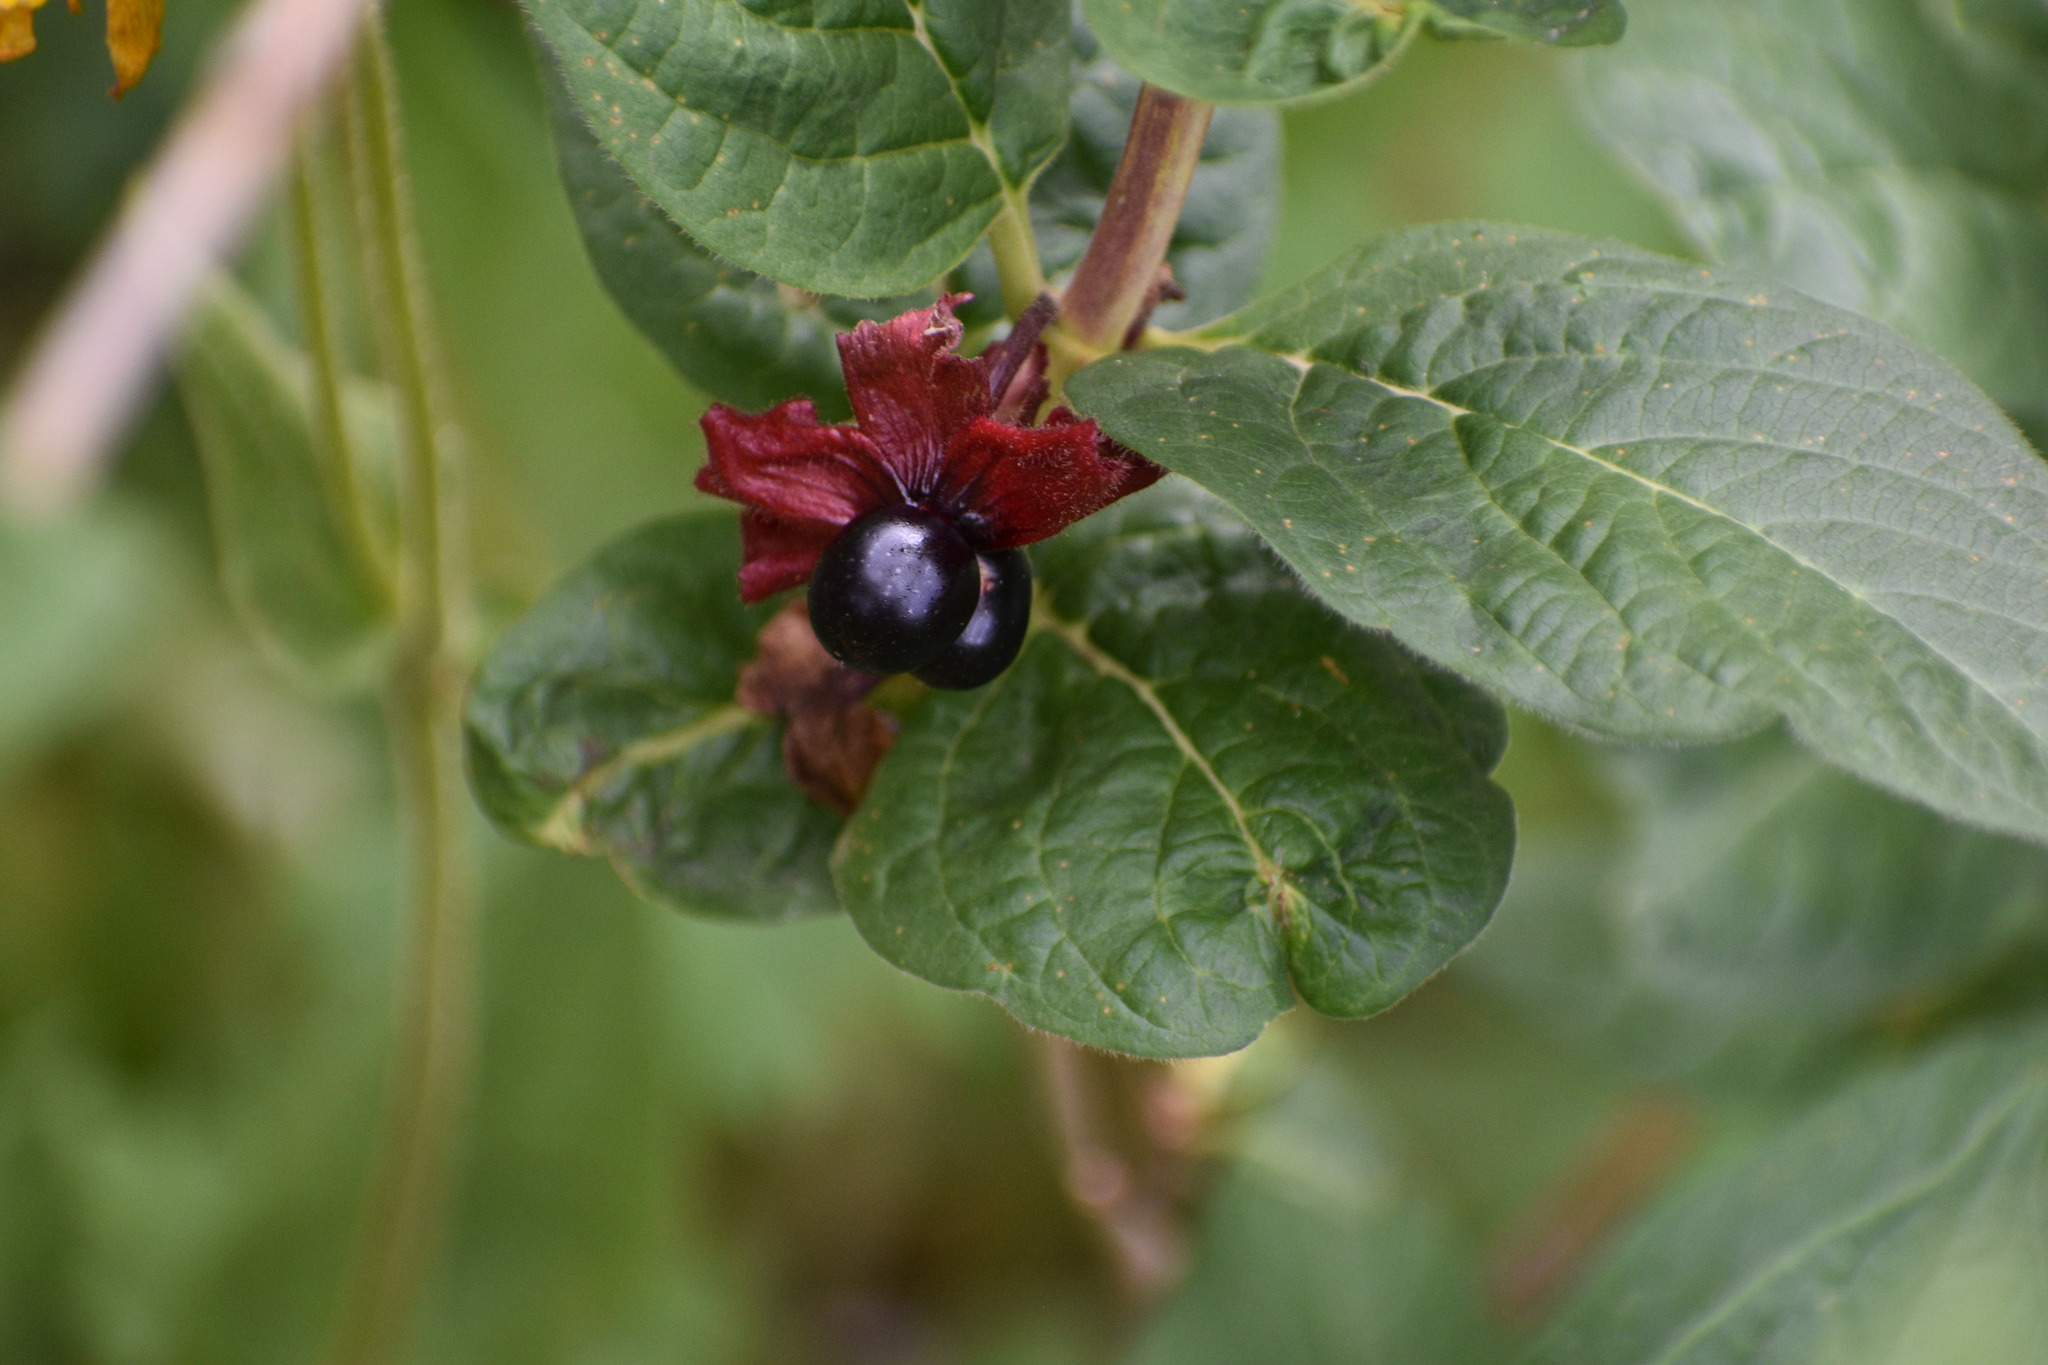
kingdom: Plantae
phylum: Tracheophyta
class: Magnoliopsida
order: Dipsacales
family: Caprifoliaceae
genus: Lonicera
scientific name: Lonicera involucrata
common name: Californian honeysuckle
